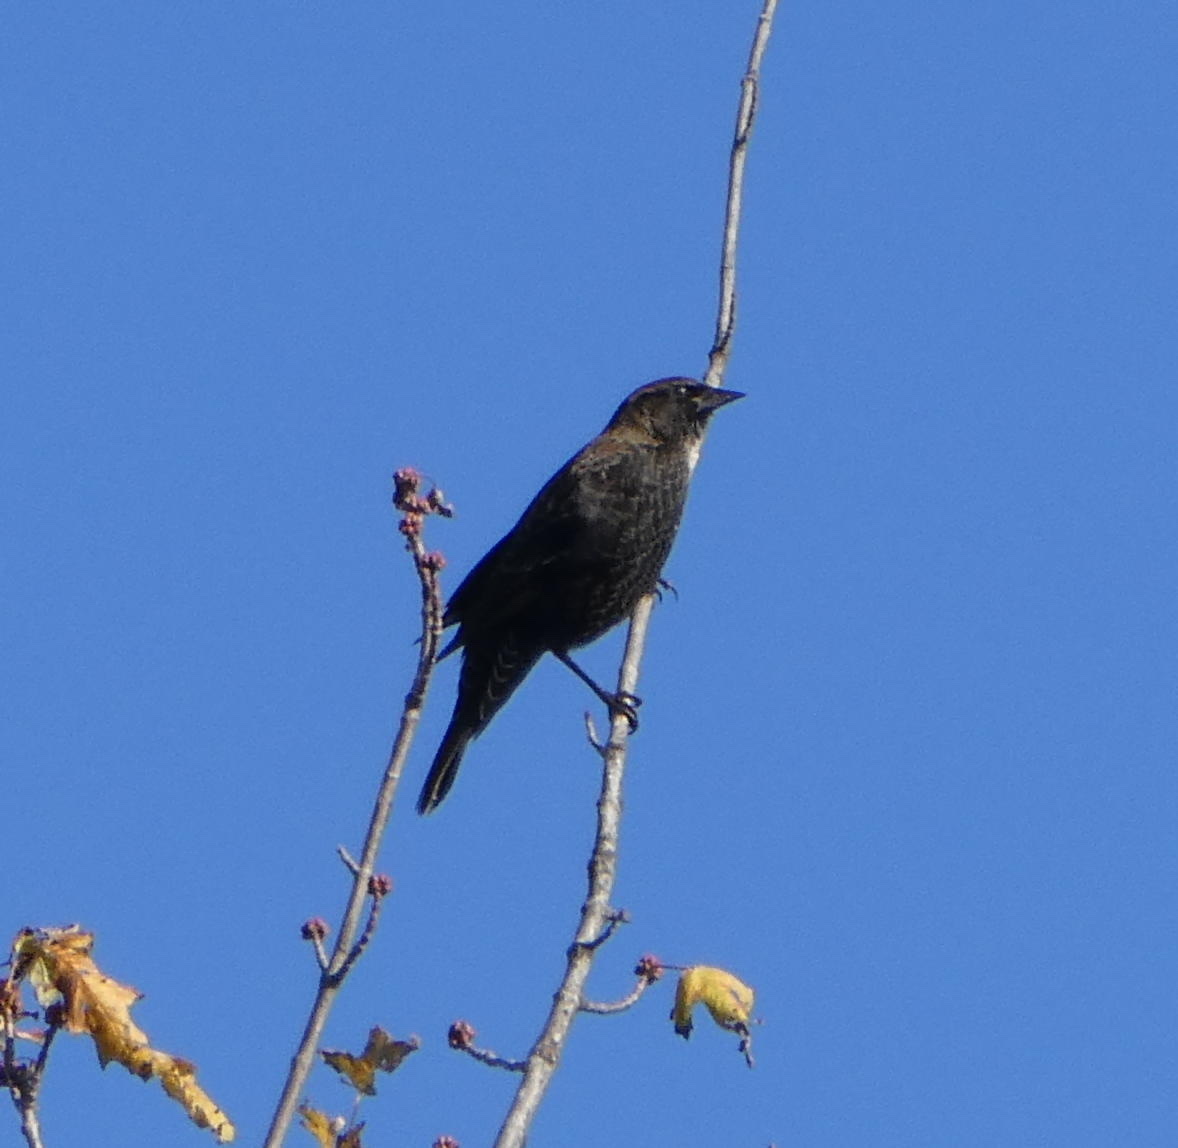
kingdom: Animalia
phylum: Chordata
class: Aves
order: Passeriformes
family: Icteridae
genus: Agelaius
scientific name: Agelaius phoeniceus
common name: Red-winged blackbird
